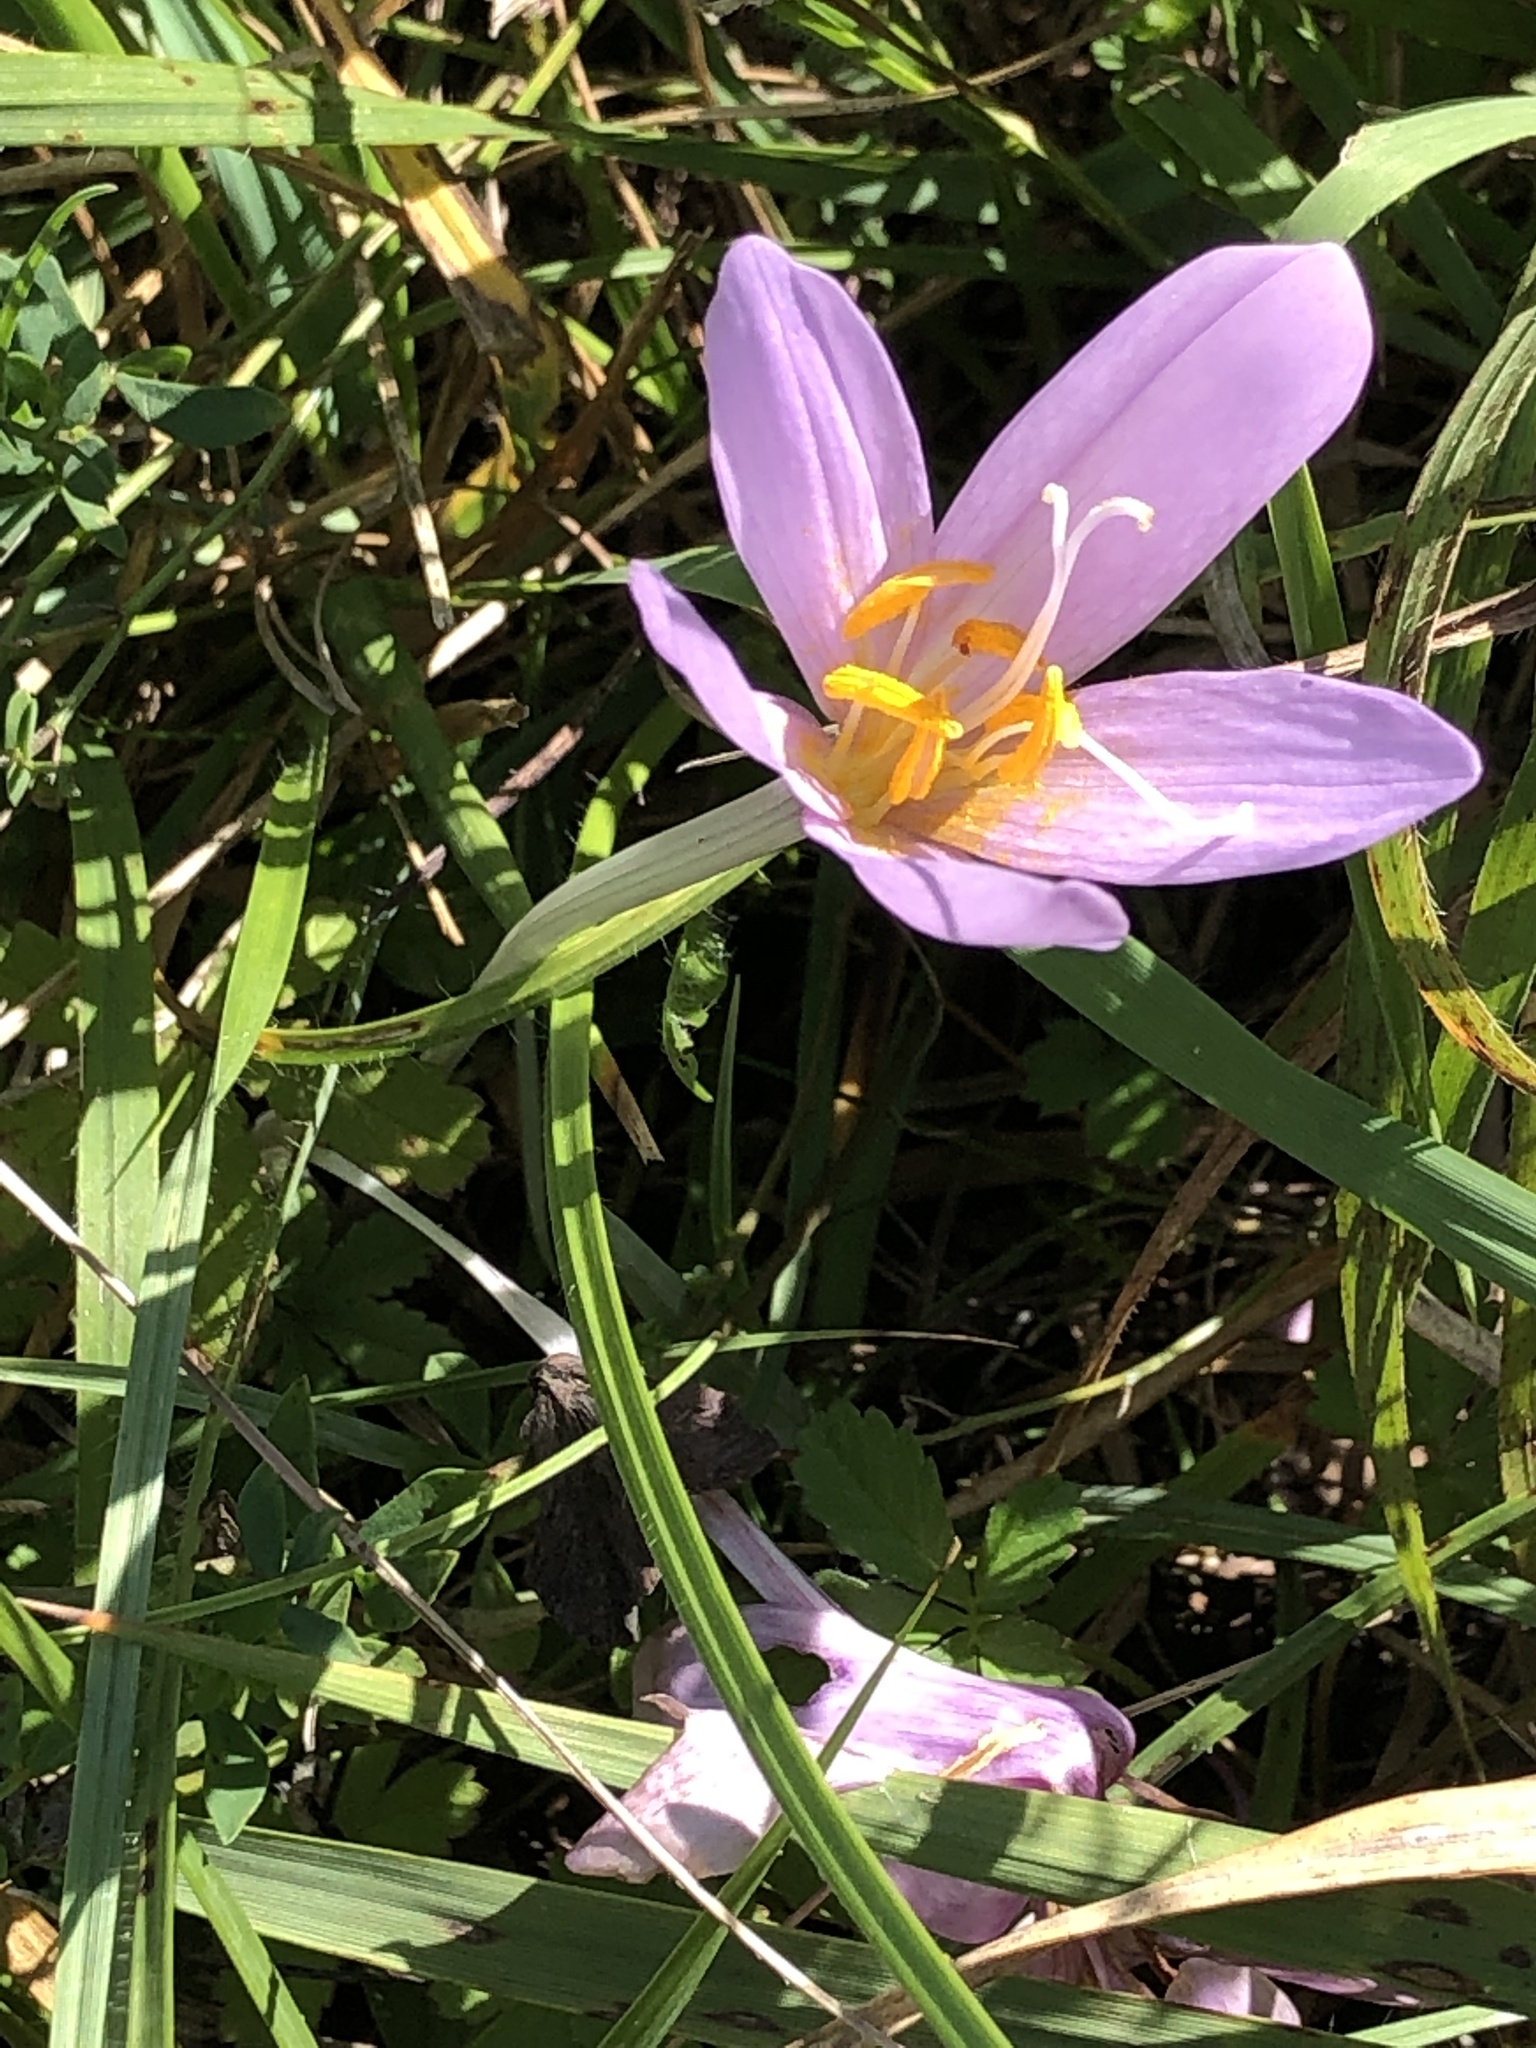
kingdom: Plantae
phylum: Tracheophyta
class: Liliopsida
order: Liliales
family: Colchicaceae
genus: Colchicum
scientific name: Colchicum autumnale
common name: Autumn crocus
